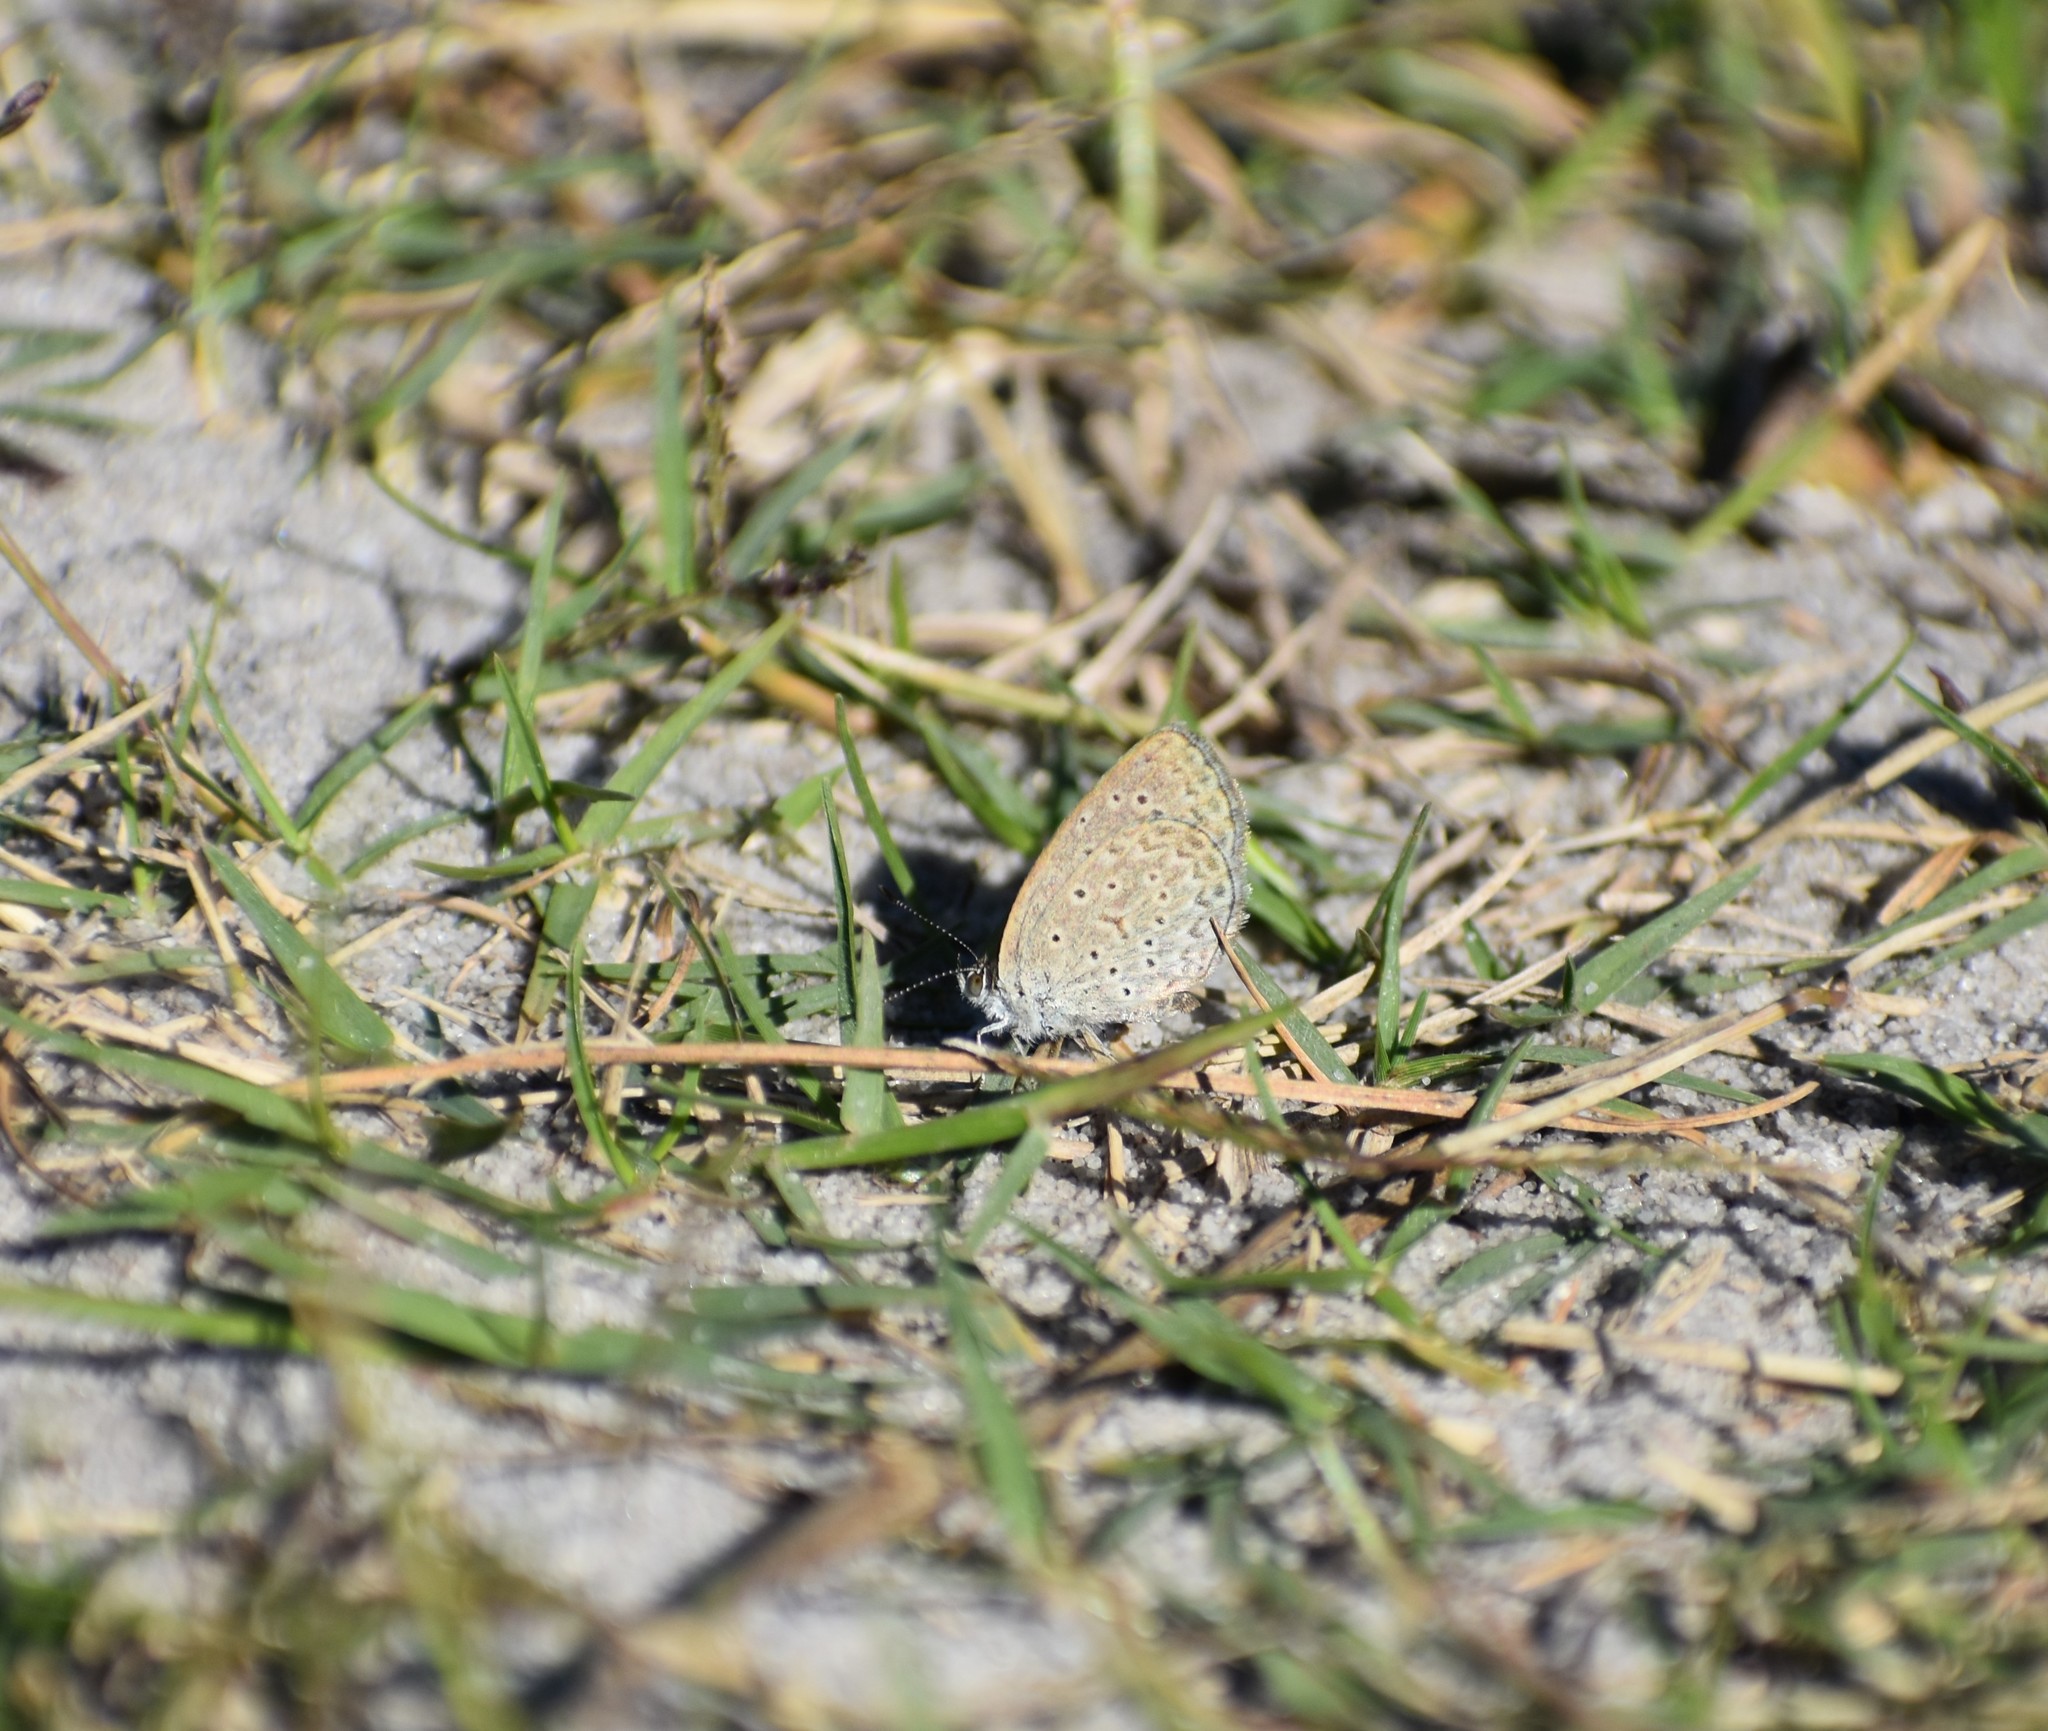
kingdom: Animalia
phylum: Arthropoda
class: Insecta
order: Lepidoptera
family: Lycaenidae
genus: Zizeeria
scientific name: Zizeeria knysna
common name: African grass blue
